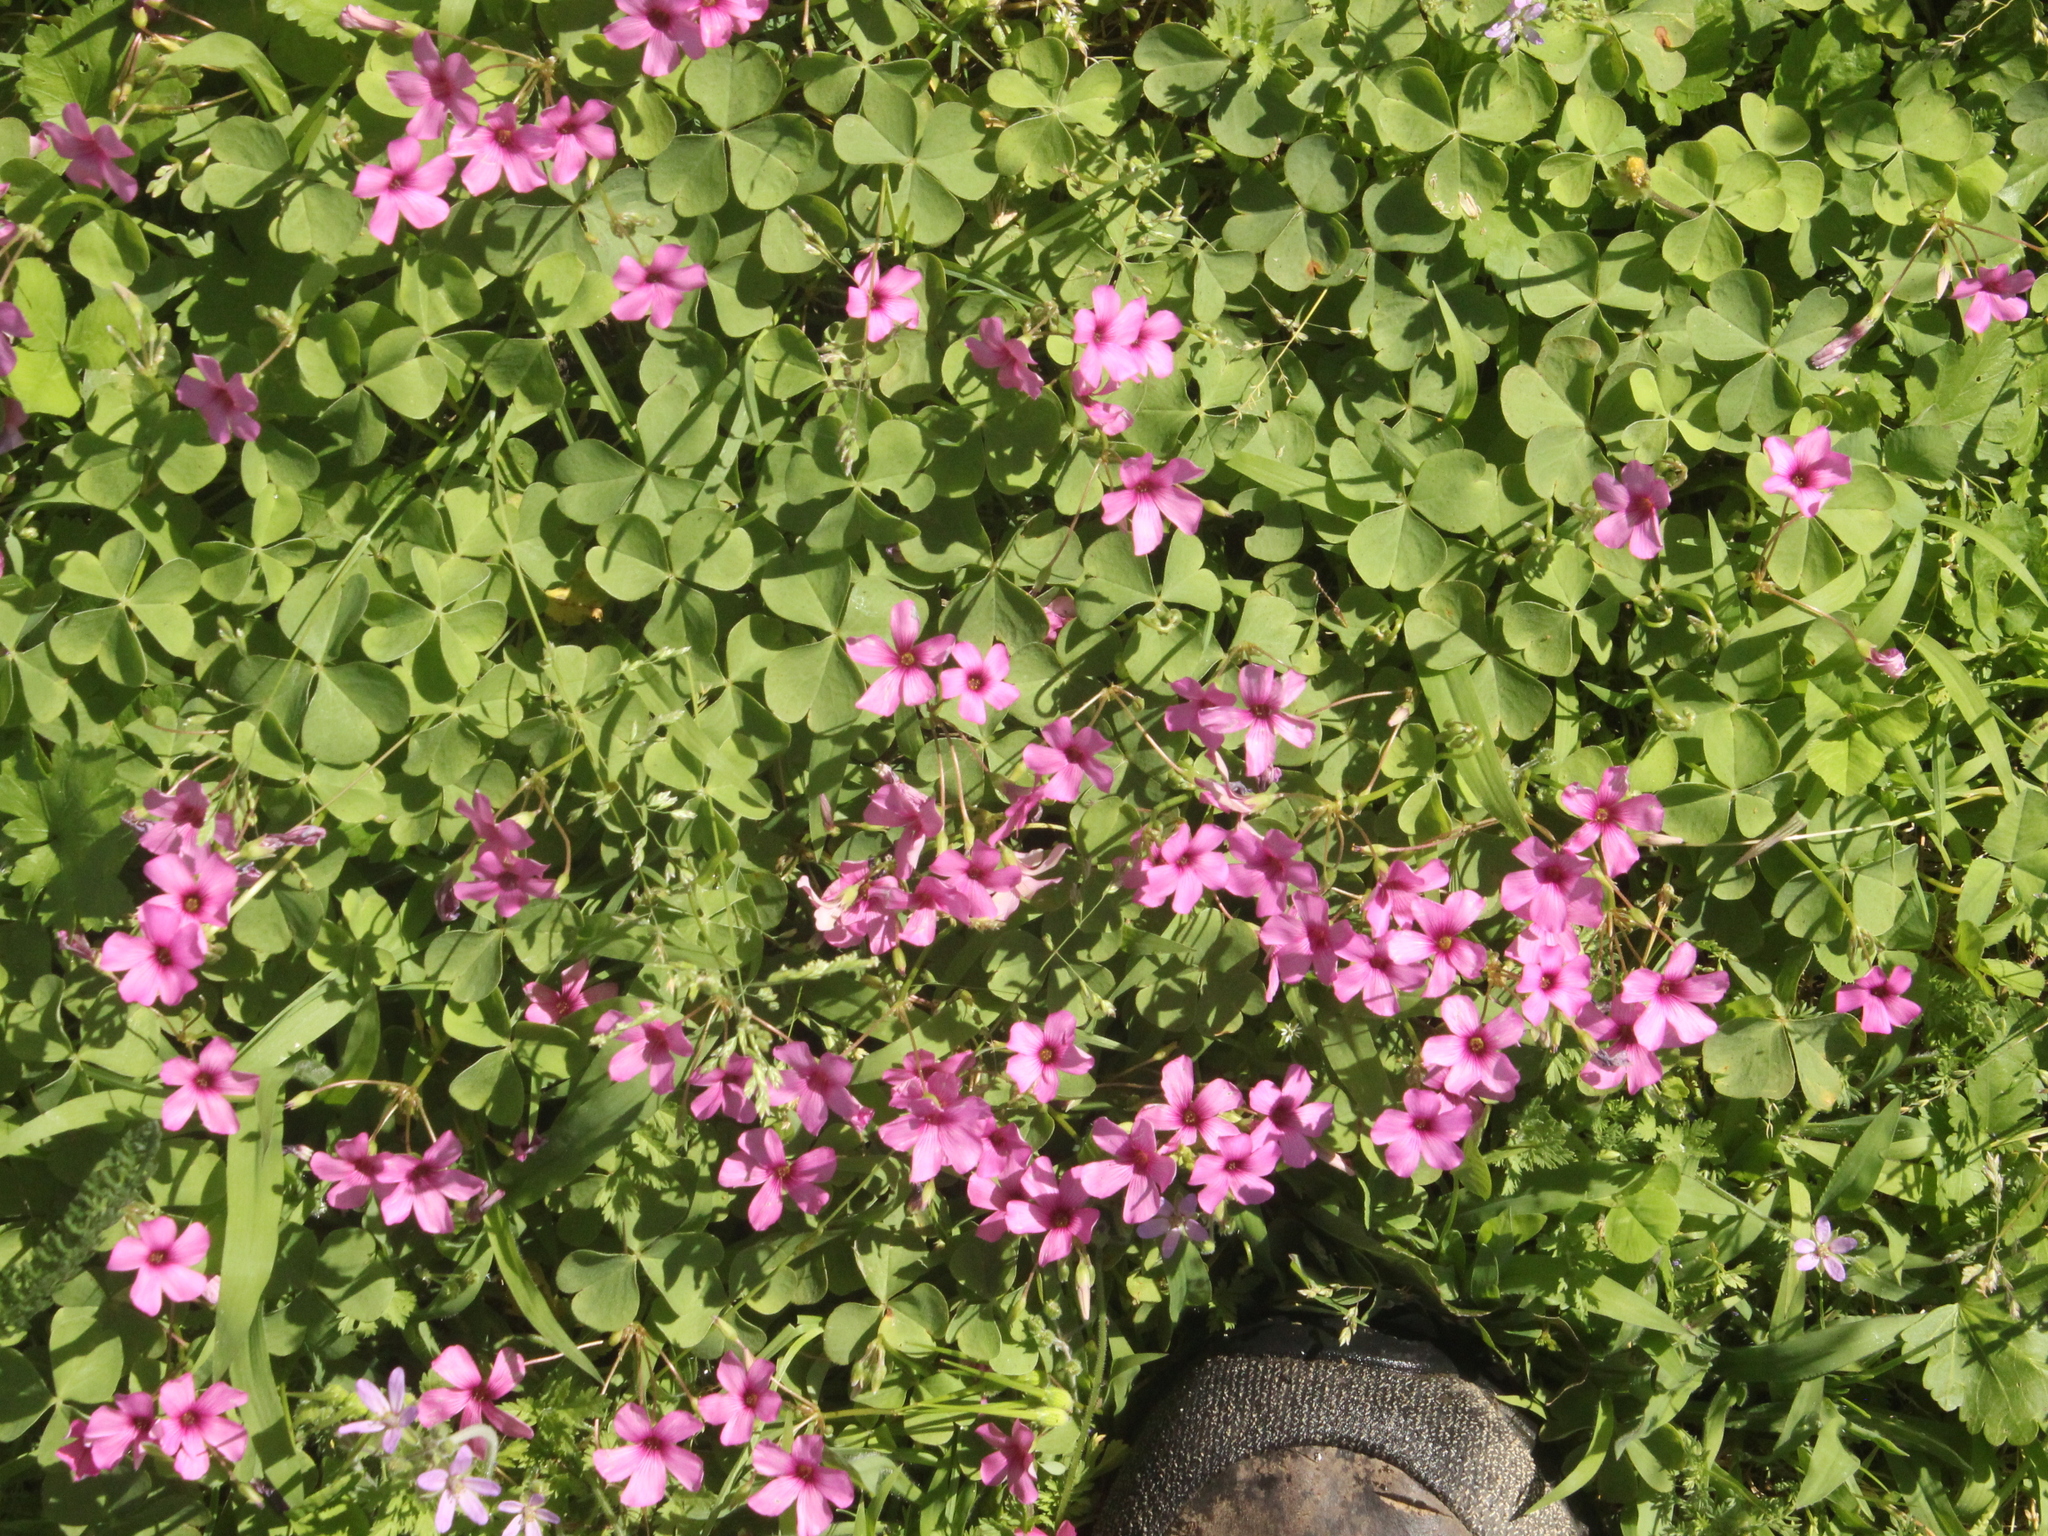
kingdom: Plantae
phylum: Tracheophyta
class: Magnoliopsida
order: Oxalidales
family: Oxalidaceae
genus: Oxalis
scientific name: Oxalis articulata
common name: Pink-sorrel
